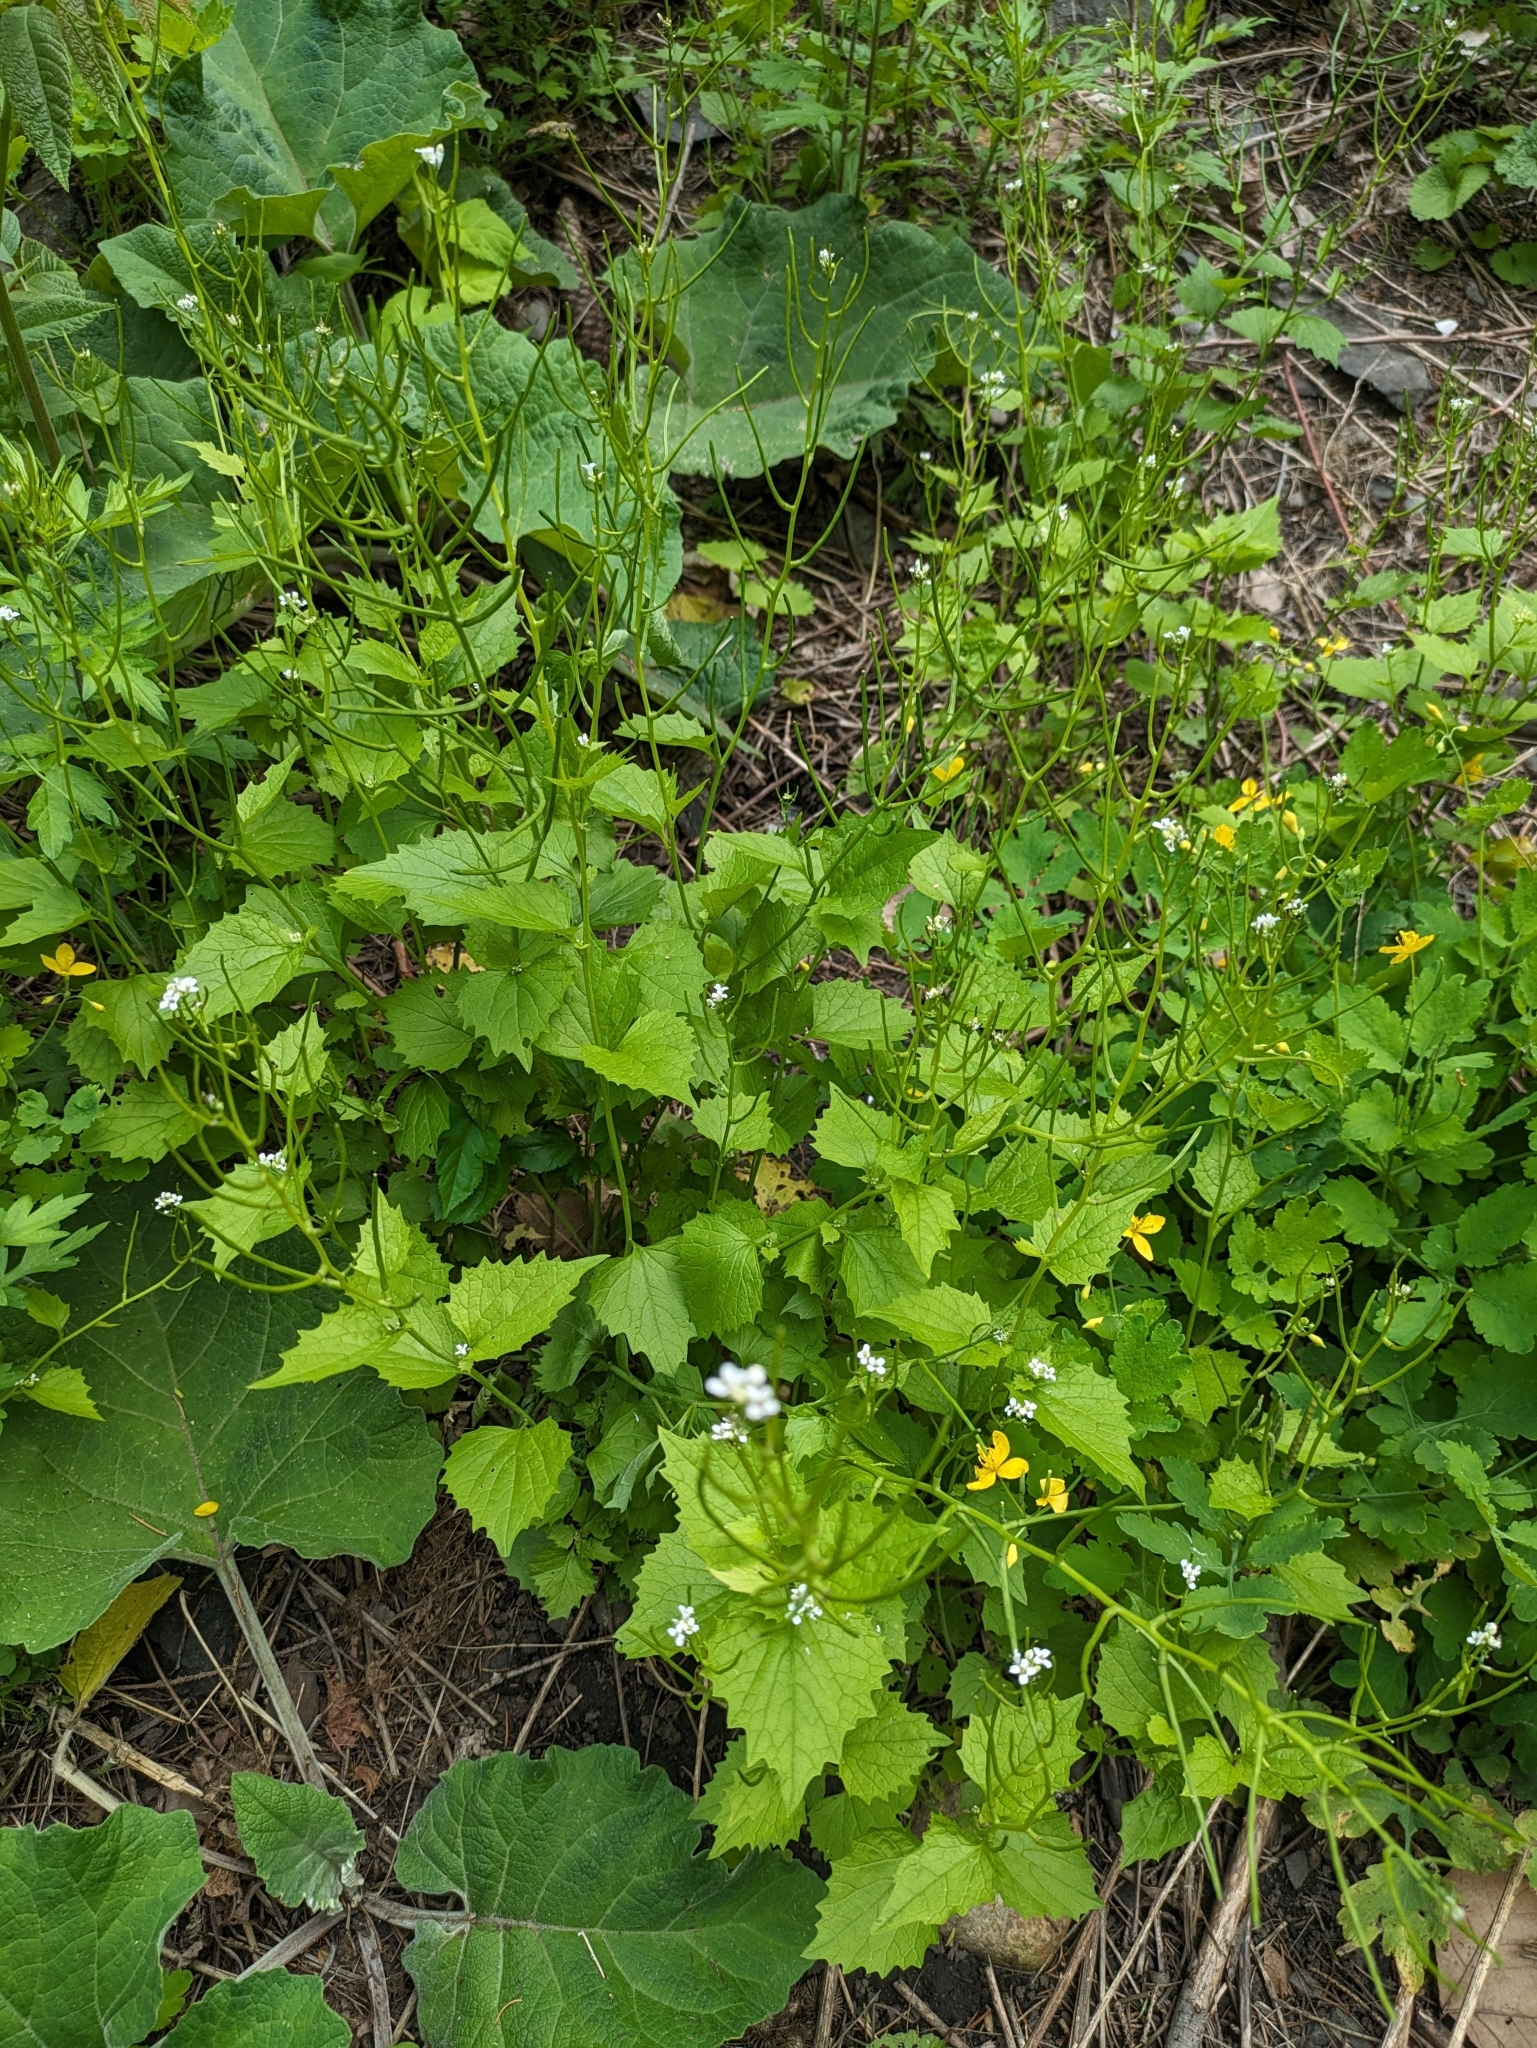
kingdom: Plantae
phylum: Tracheophyta
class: Magnoliopsida
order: Brassicales
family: Brassicaceae
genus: Alliaria
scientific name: Alliaria petiolata
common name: Garlic mustard
